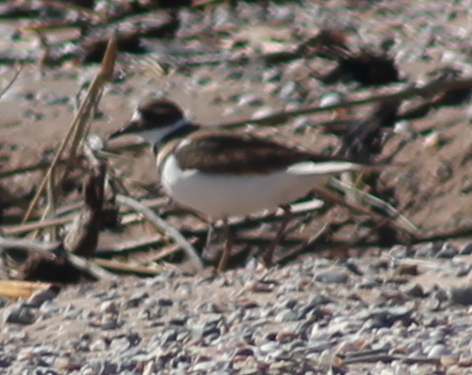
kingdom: Animalia
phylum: Chordata
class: Aves
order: Charadriiformes
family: Charadriidae
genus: Charadrius
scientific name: Charadrius vociferus
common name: Killdeer
